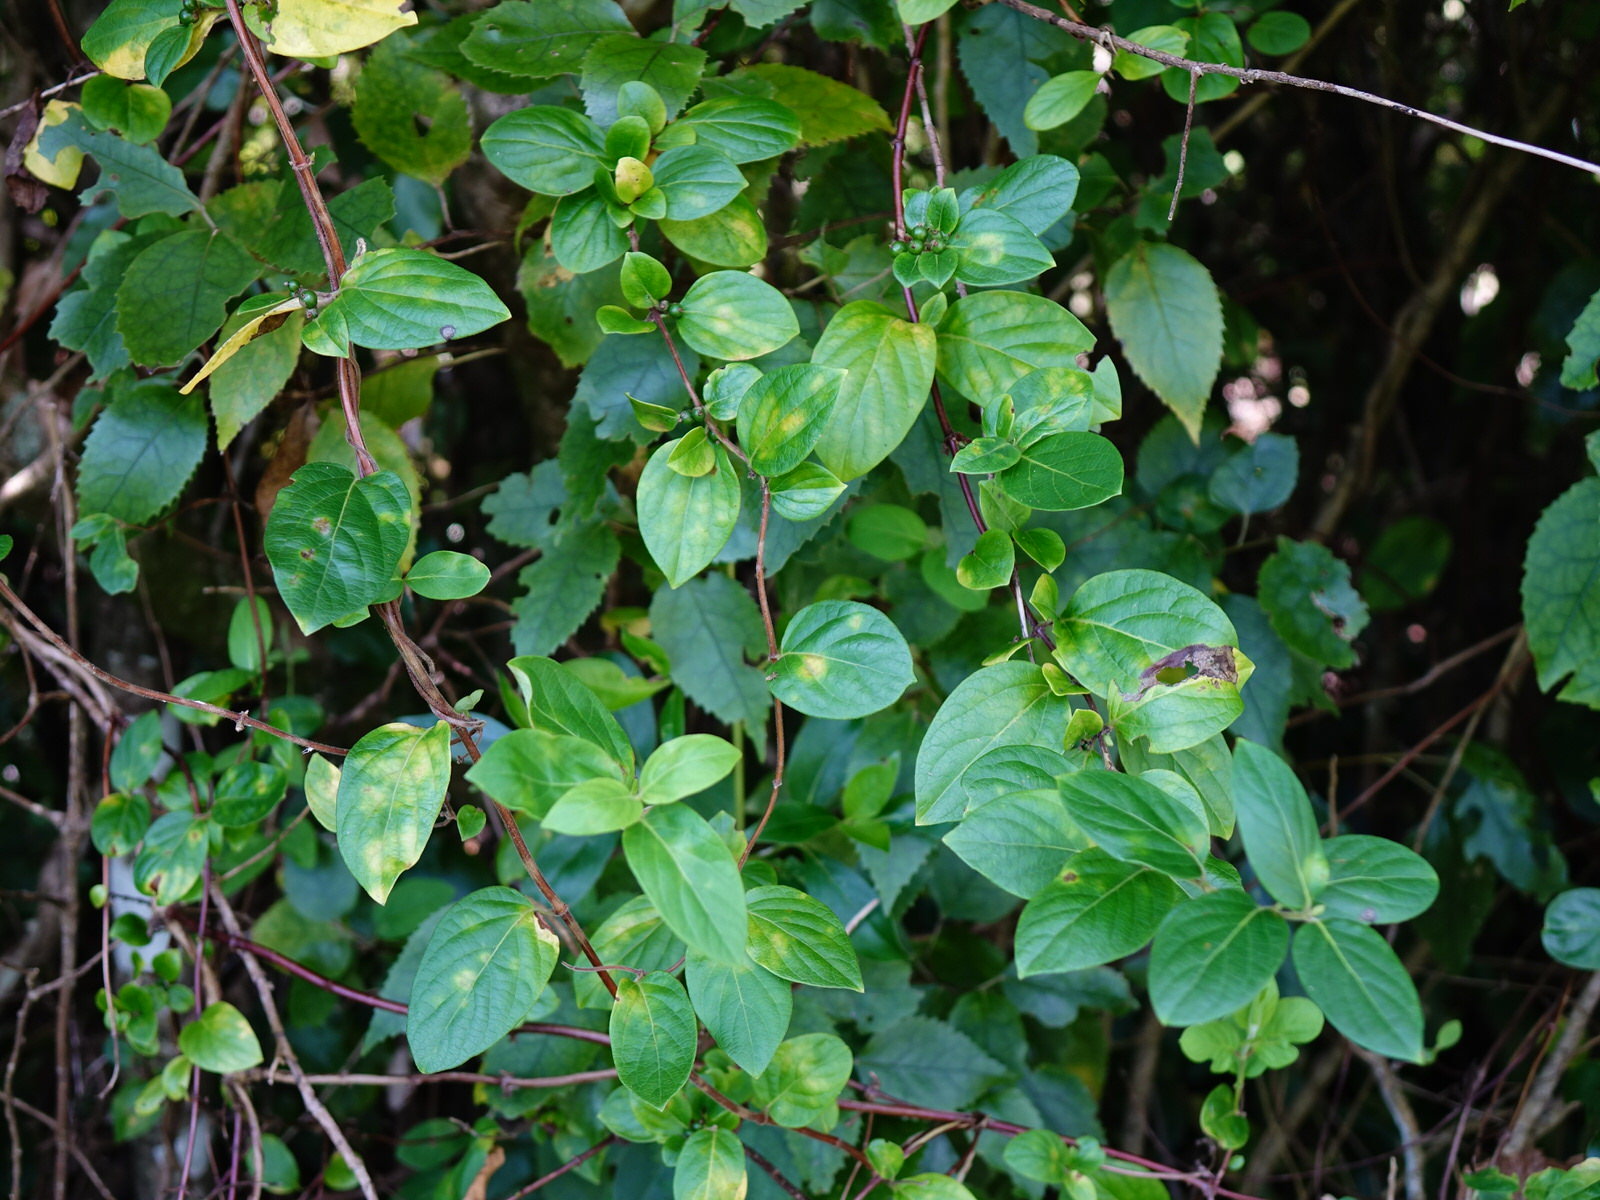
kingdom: Plantae
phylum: Tracheophyta
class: Magnoliopsida
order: Dipsacales
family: Caprifoliaceae
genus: Lonicera
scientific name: Lonicera japonica
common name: Japanese honeysuckle
